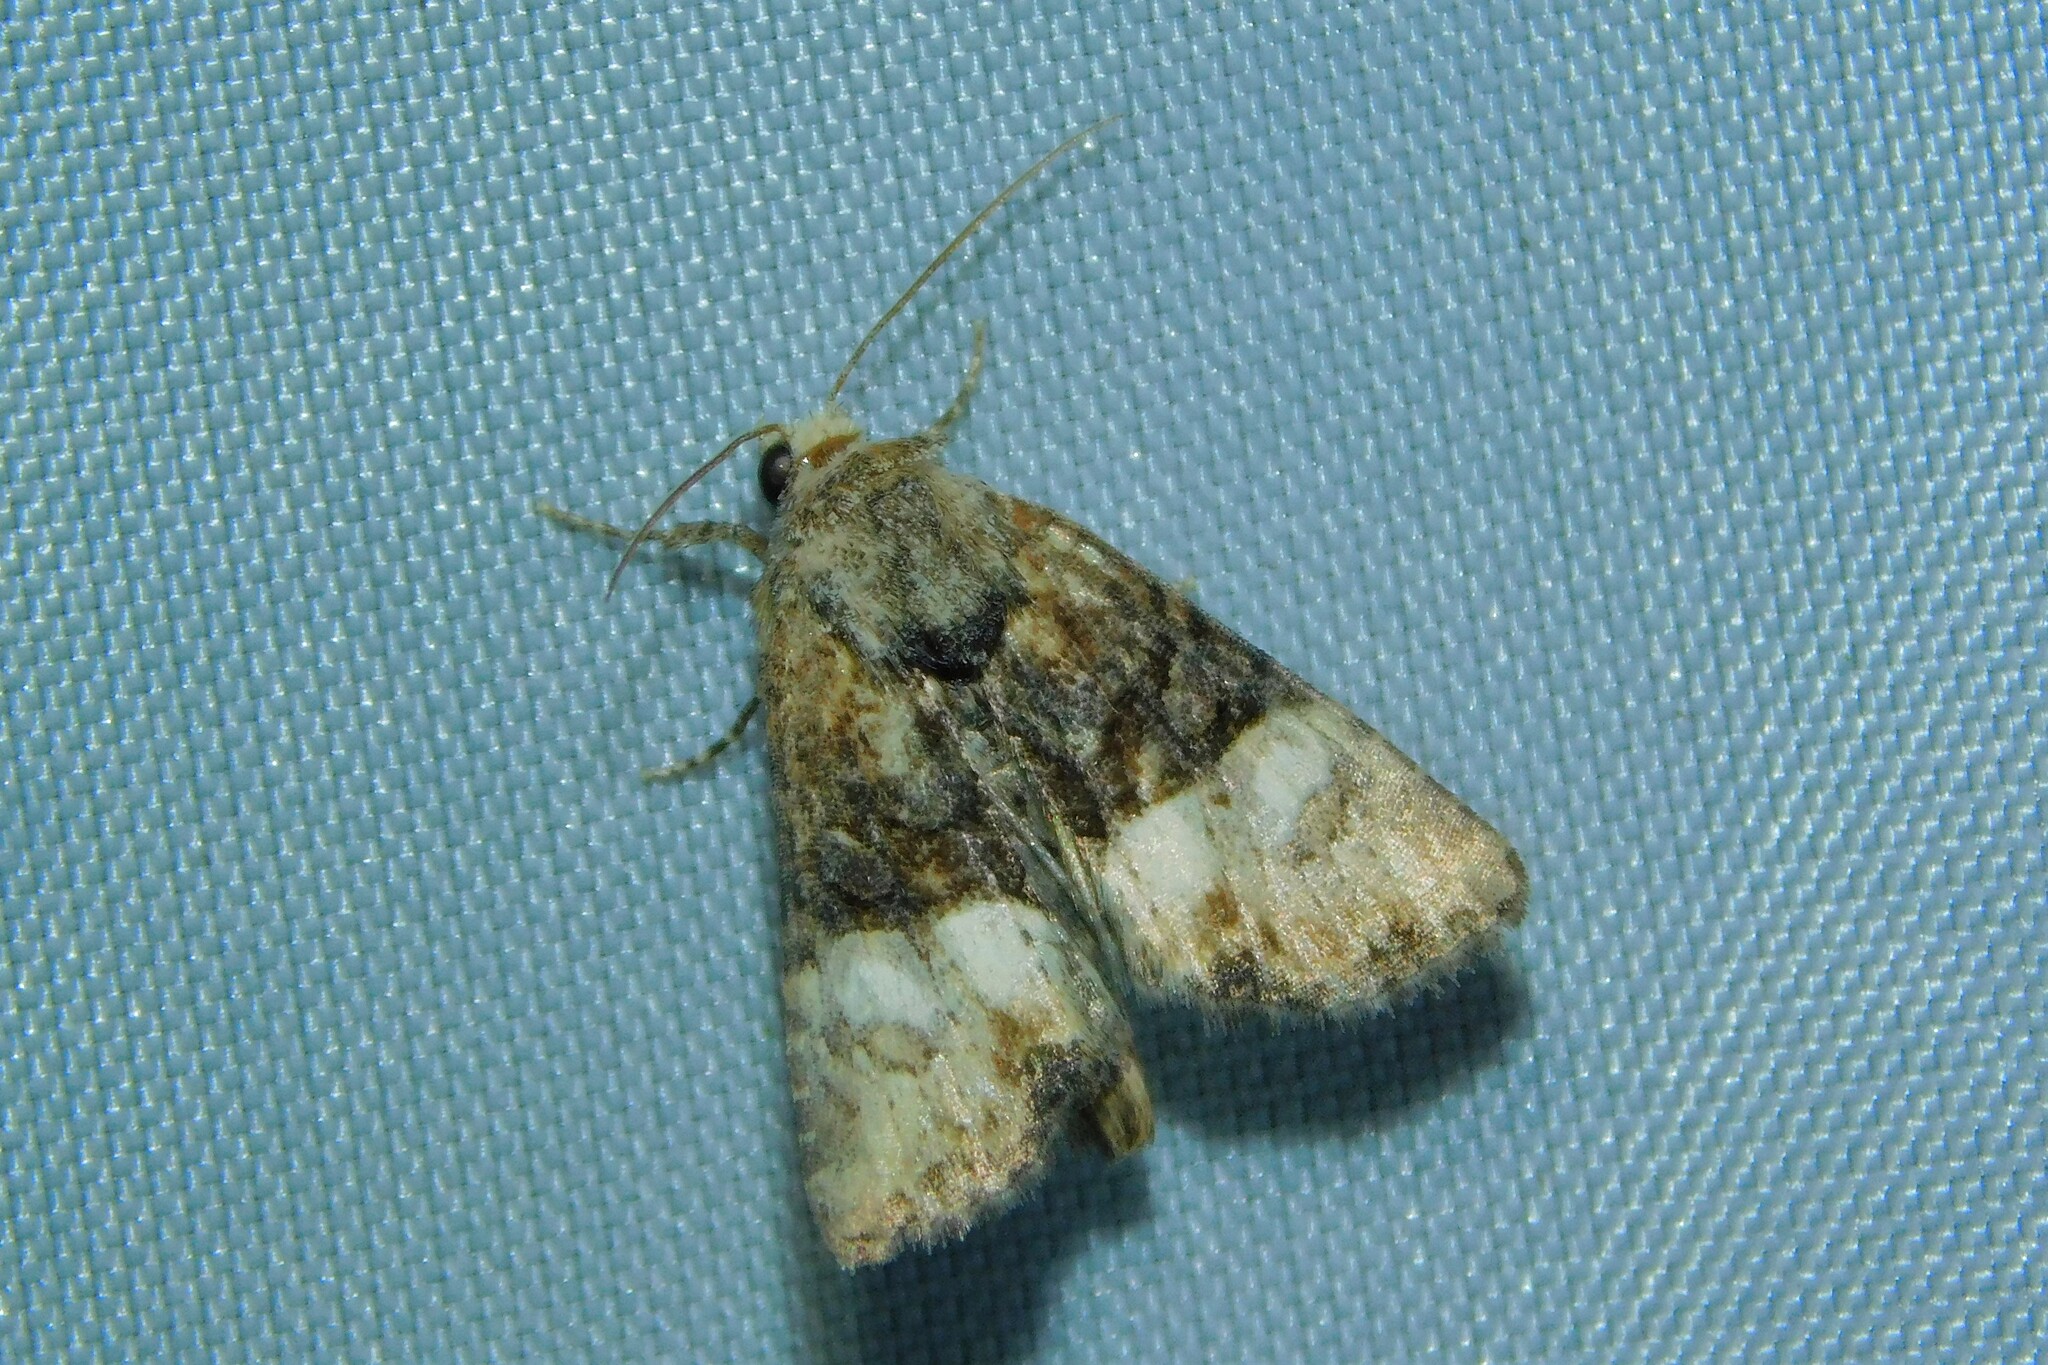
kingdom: Animalia
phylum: Arthropoda
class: Insecta
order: Lepidoptera
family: Noctuidae
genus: Mesoligia
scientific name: Mesoligia furuncula
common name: Cloaked minor
